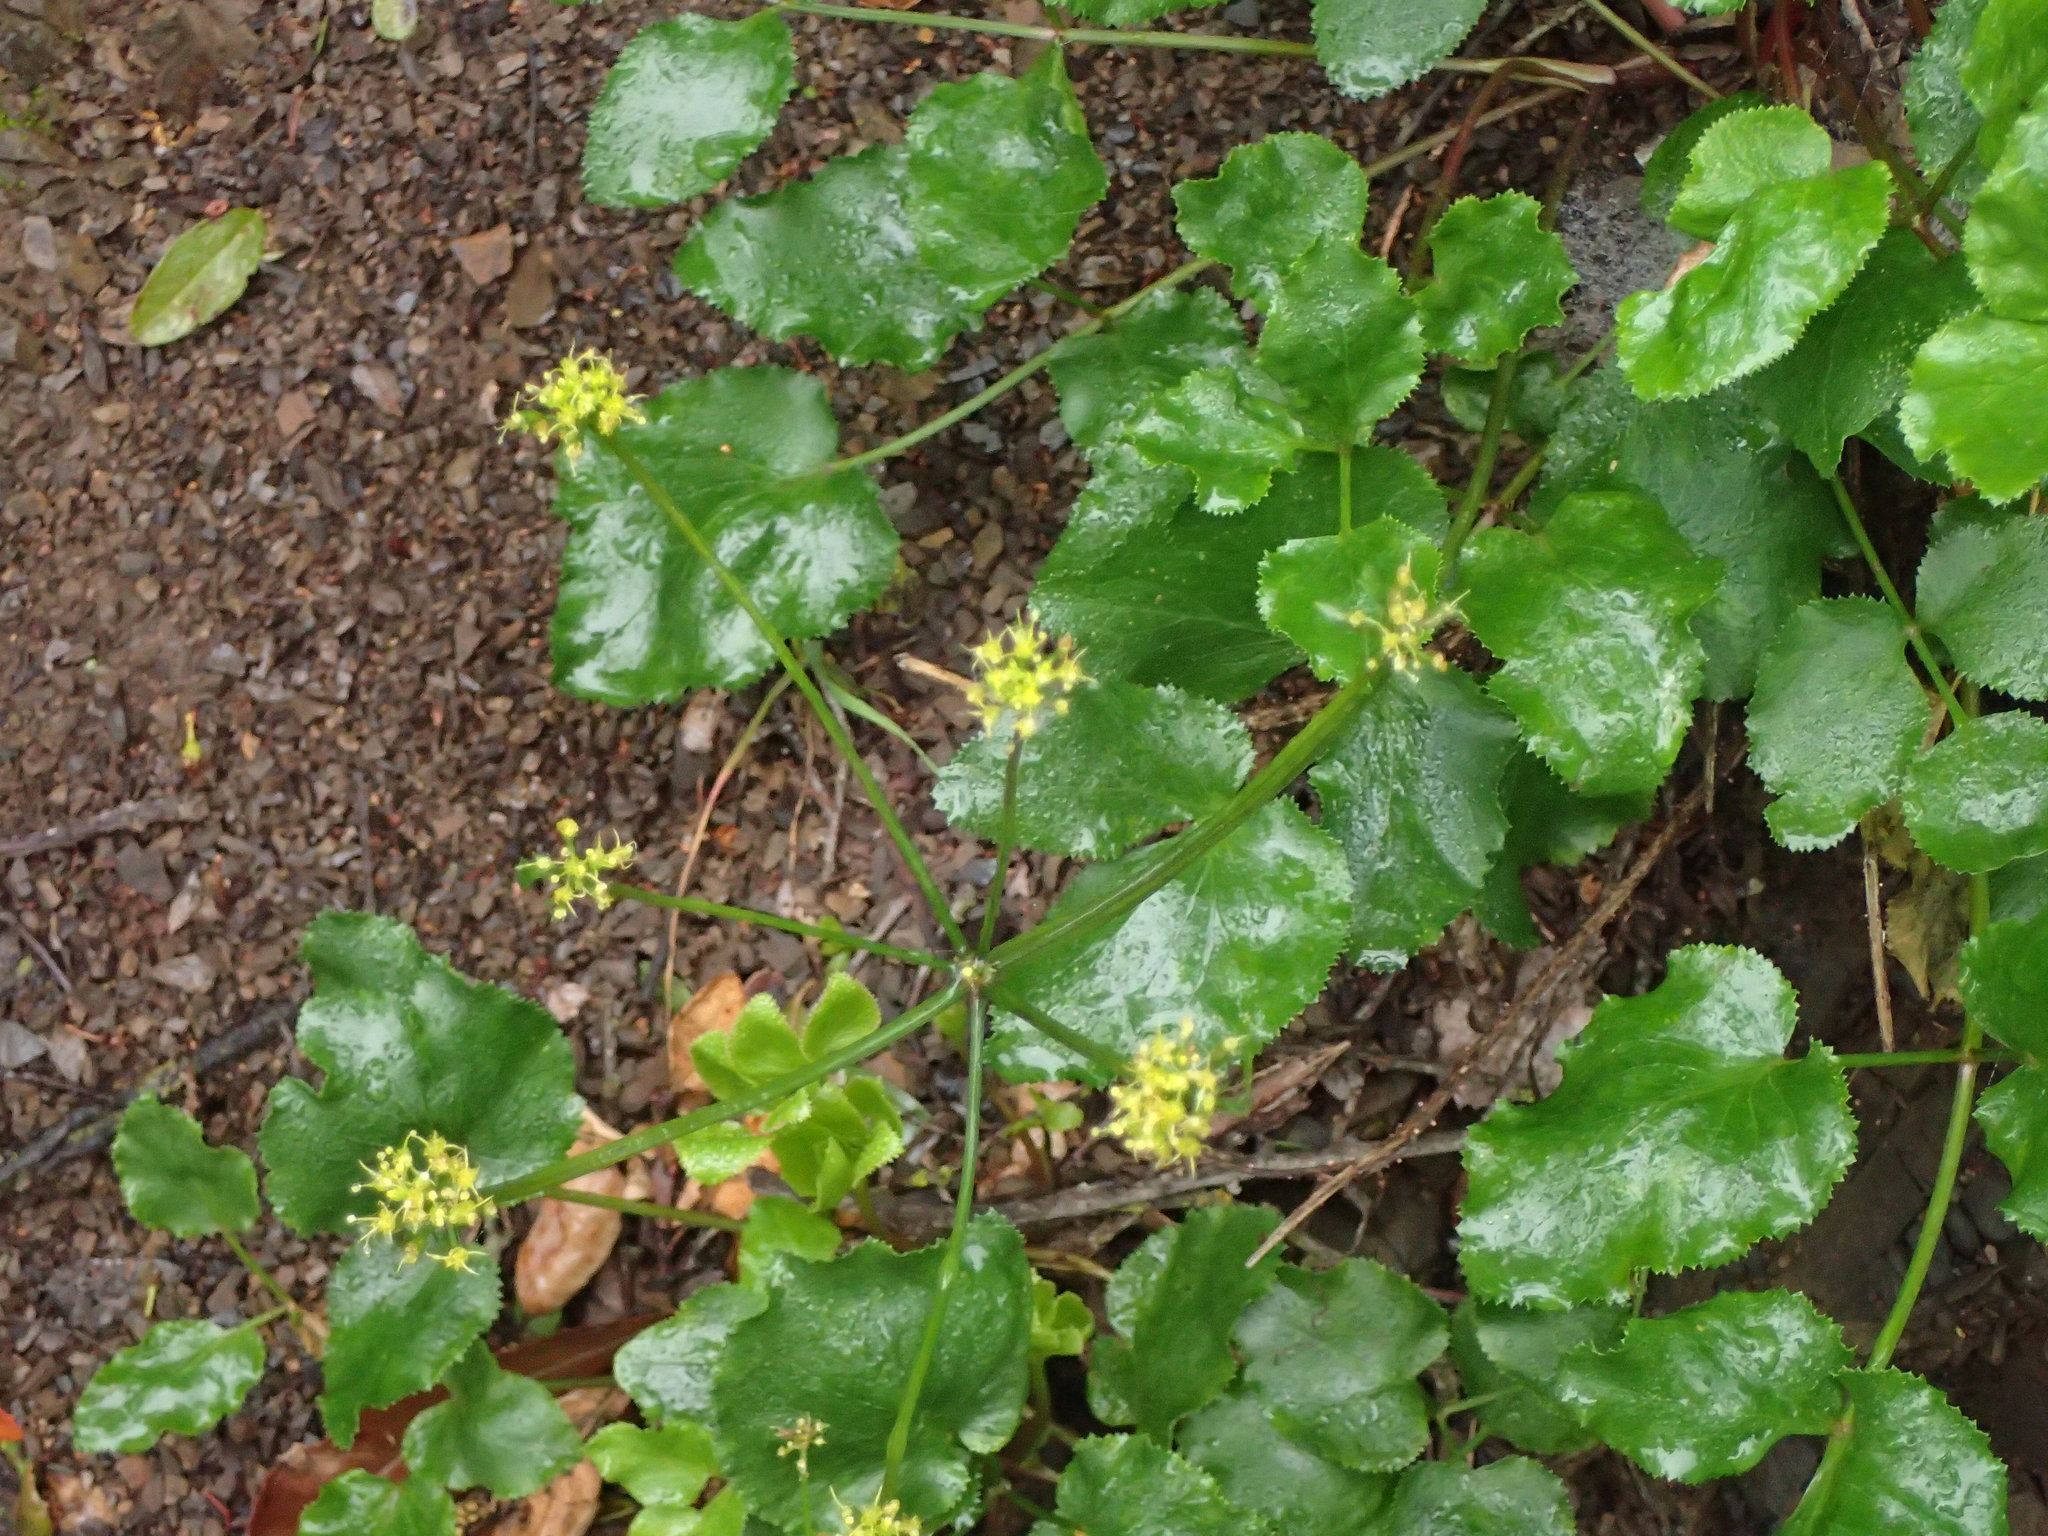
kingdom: Plantae
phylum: Tracheophyta
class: Magnoliopsida
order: Apiales
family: Apiaceae
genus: Tauschia
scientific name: Tauschia arguta
